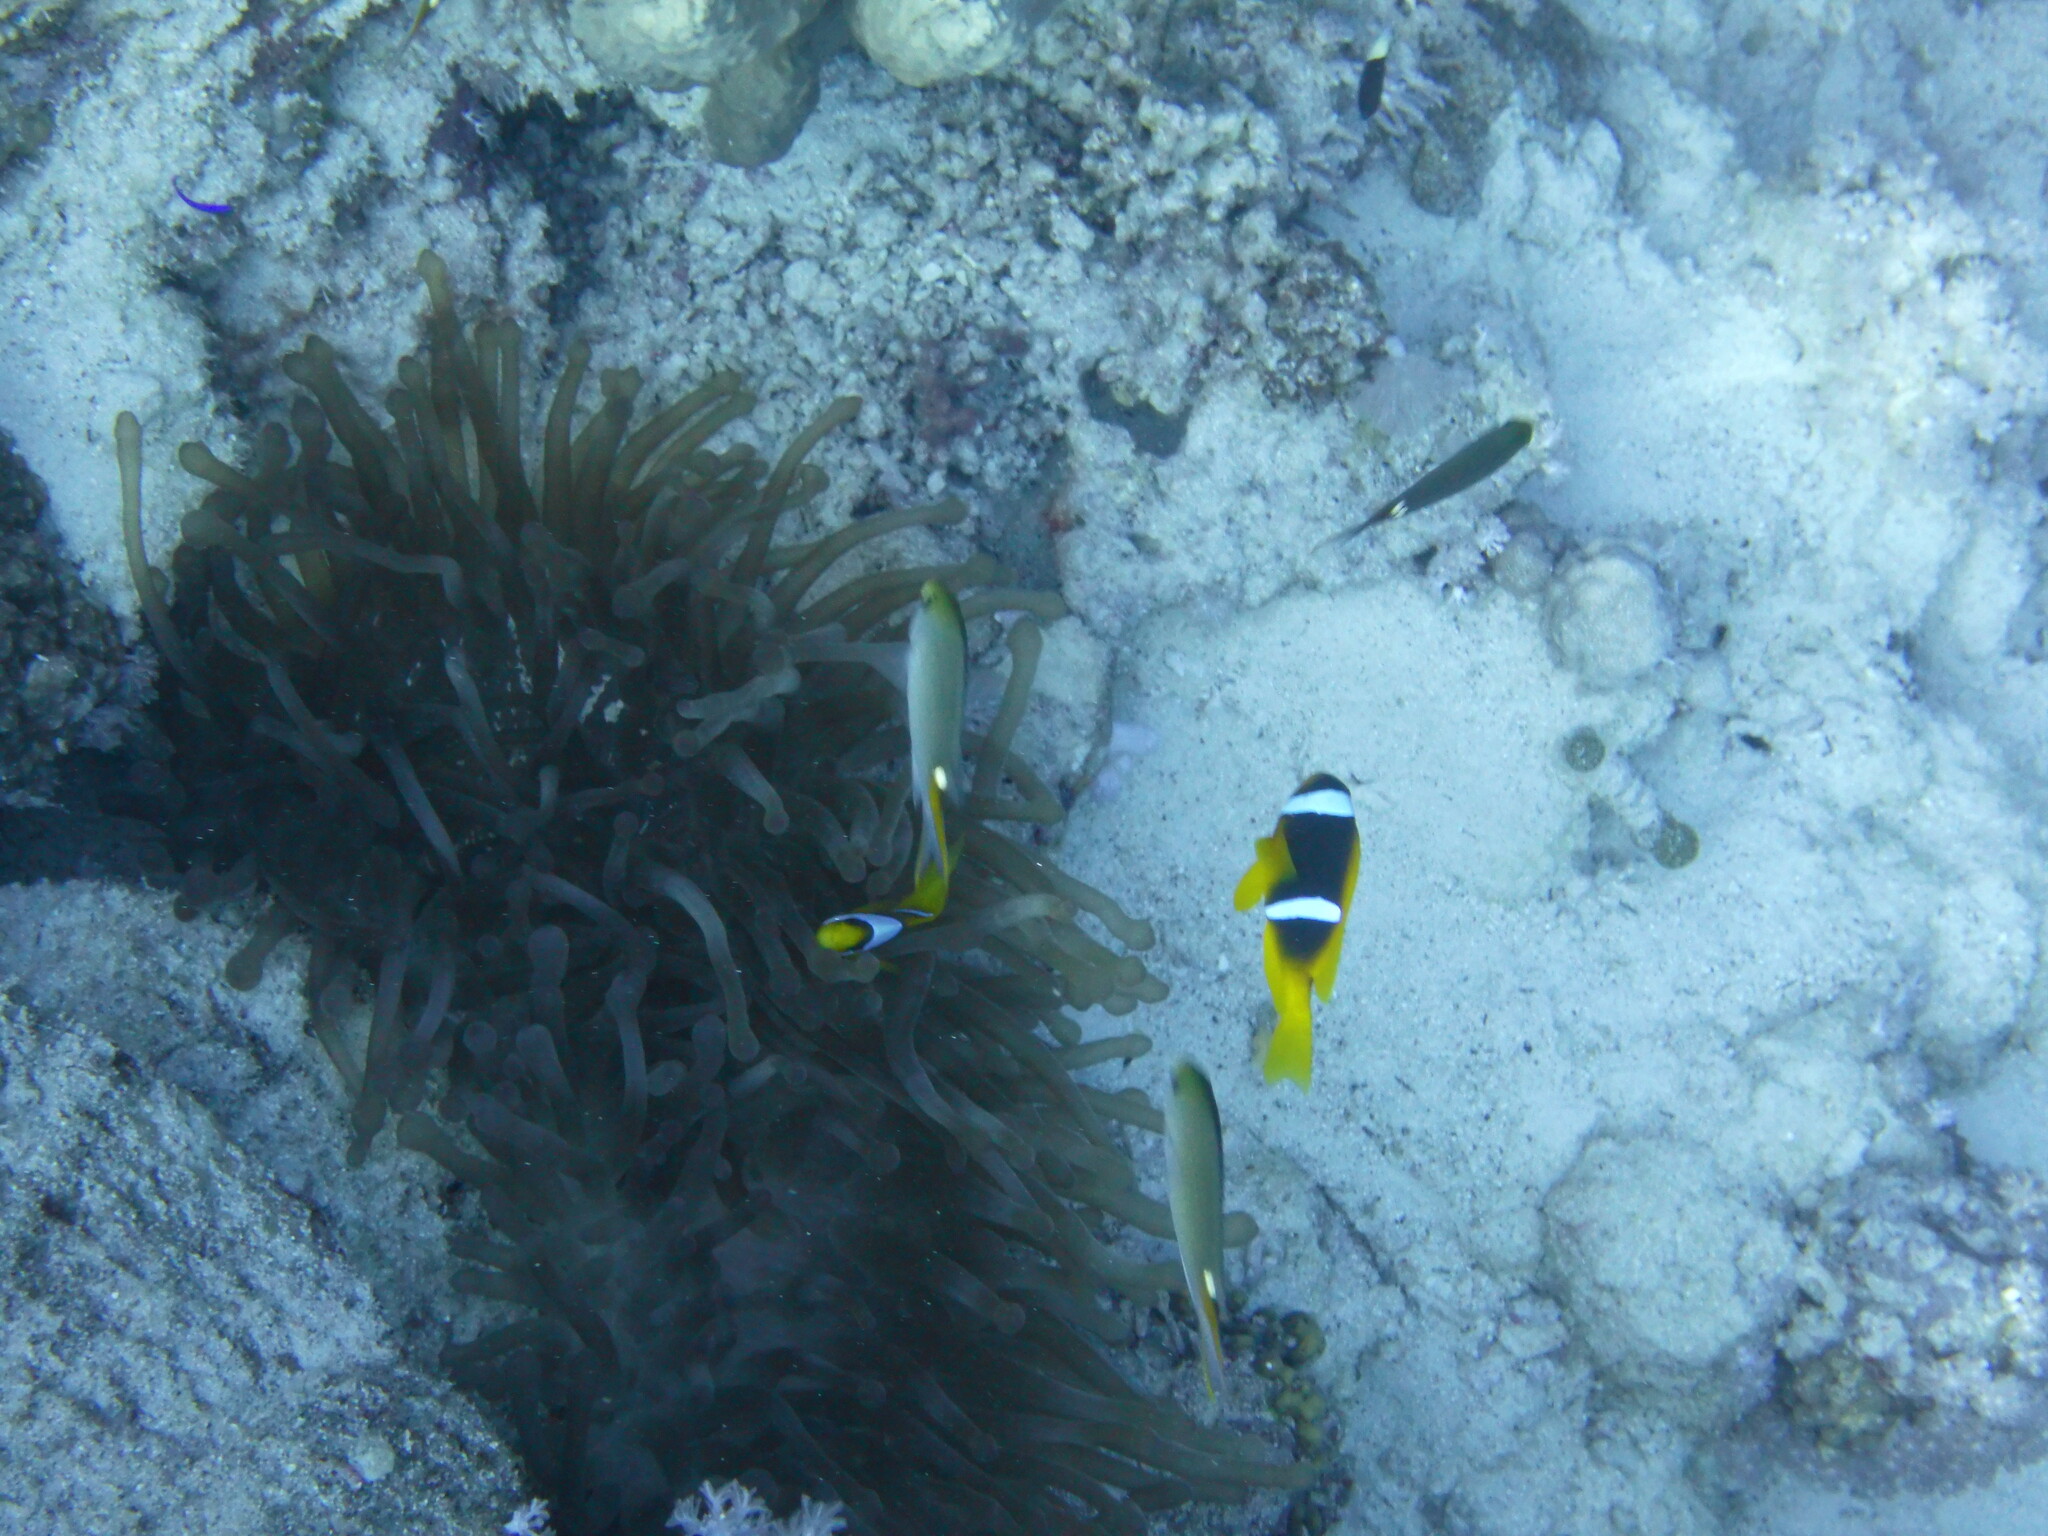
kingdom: Animalia
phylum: Cnidaria
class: Anthozoa
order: Actiniaria
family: Actiniidae
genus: Entacmaea
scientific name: Entacmaea quadricolor
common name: Bulb tentacle sea anemone
